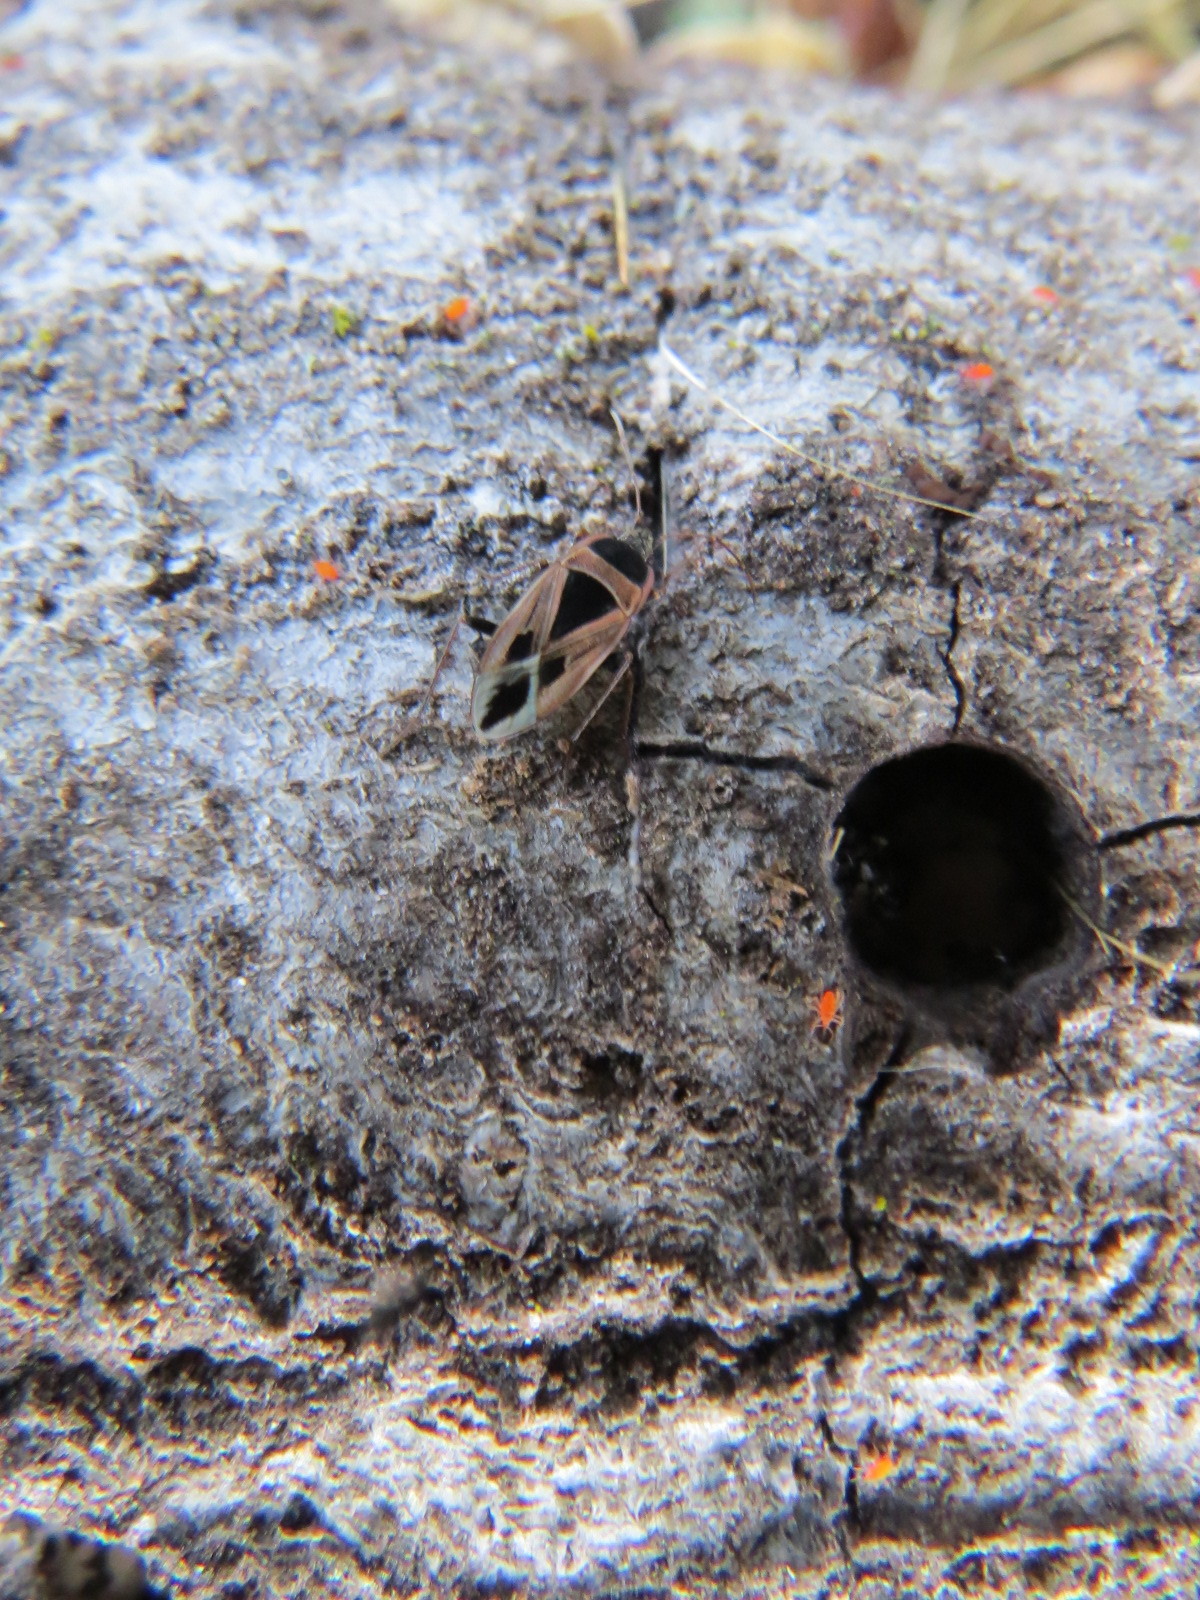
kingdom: Animalia
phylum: Arthropoda
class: Insecta
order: Hemiptera
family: Rhyparochromidae
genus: Xanthochilus
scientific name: Xanthochilus saturnius
